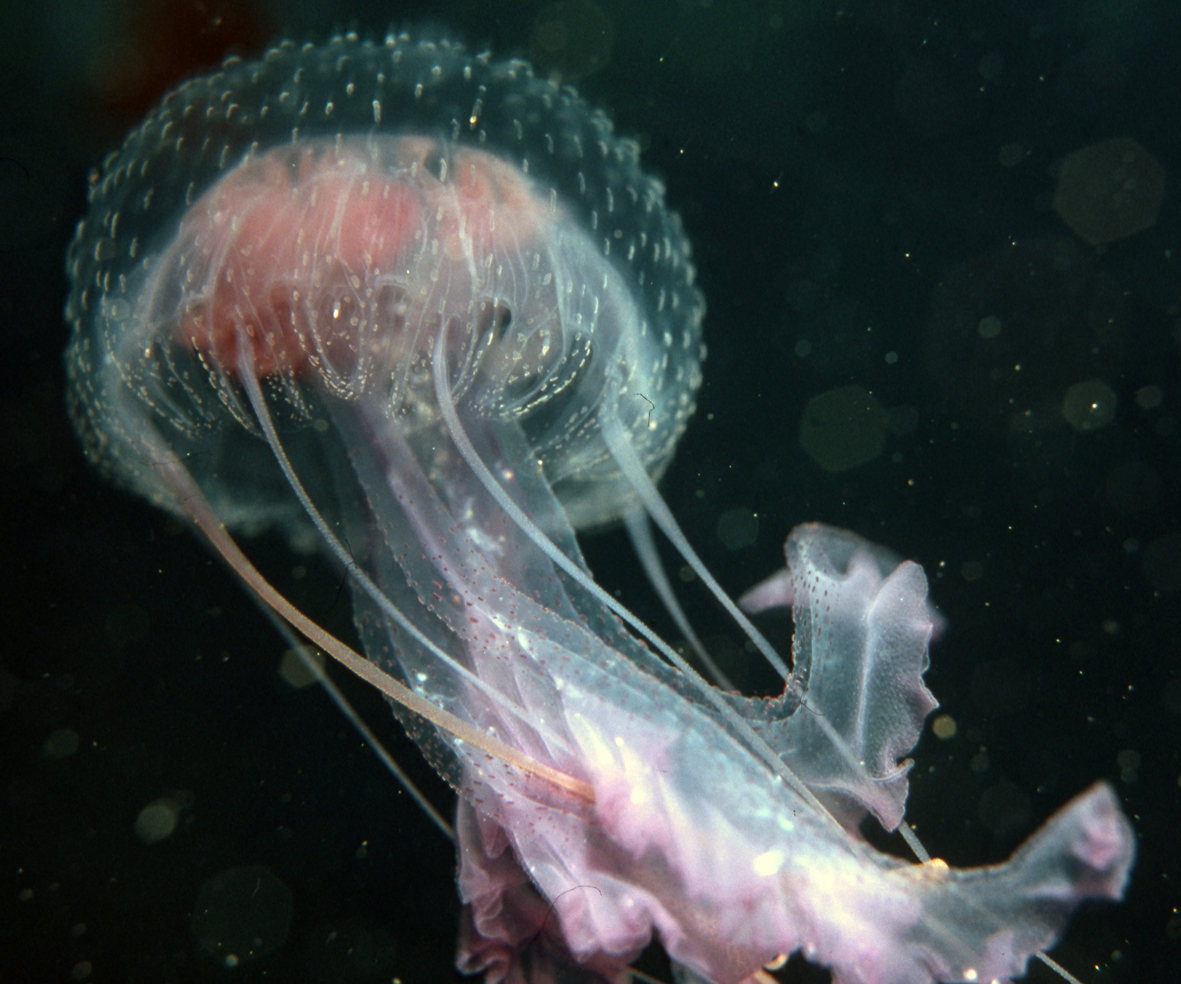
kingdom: Animalia
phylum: Cnidaria
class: Scyphozoa
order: Semaeostomeae
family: Pelagiidae
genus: Pelagia
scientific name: Pelagia noctiluca
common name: Mauve stinger
